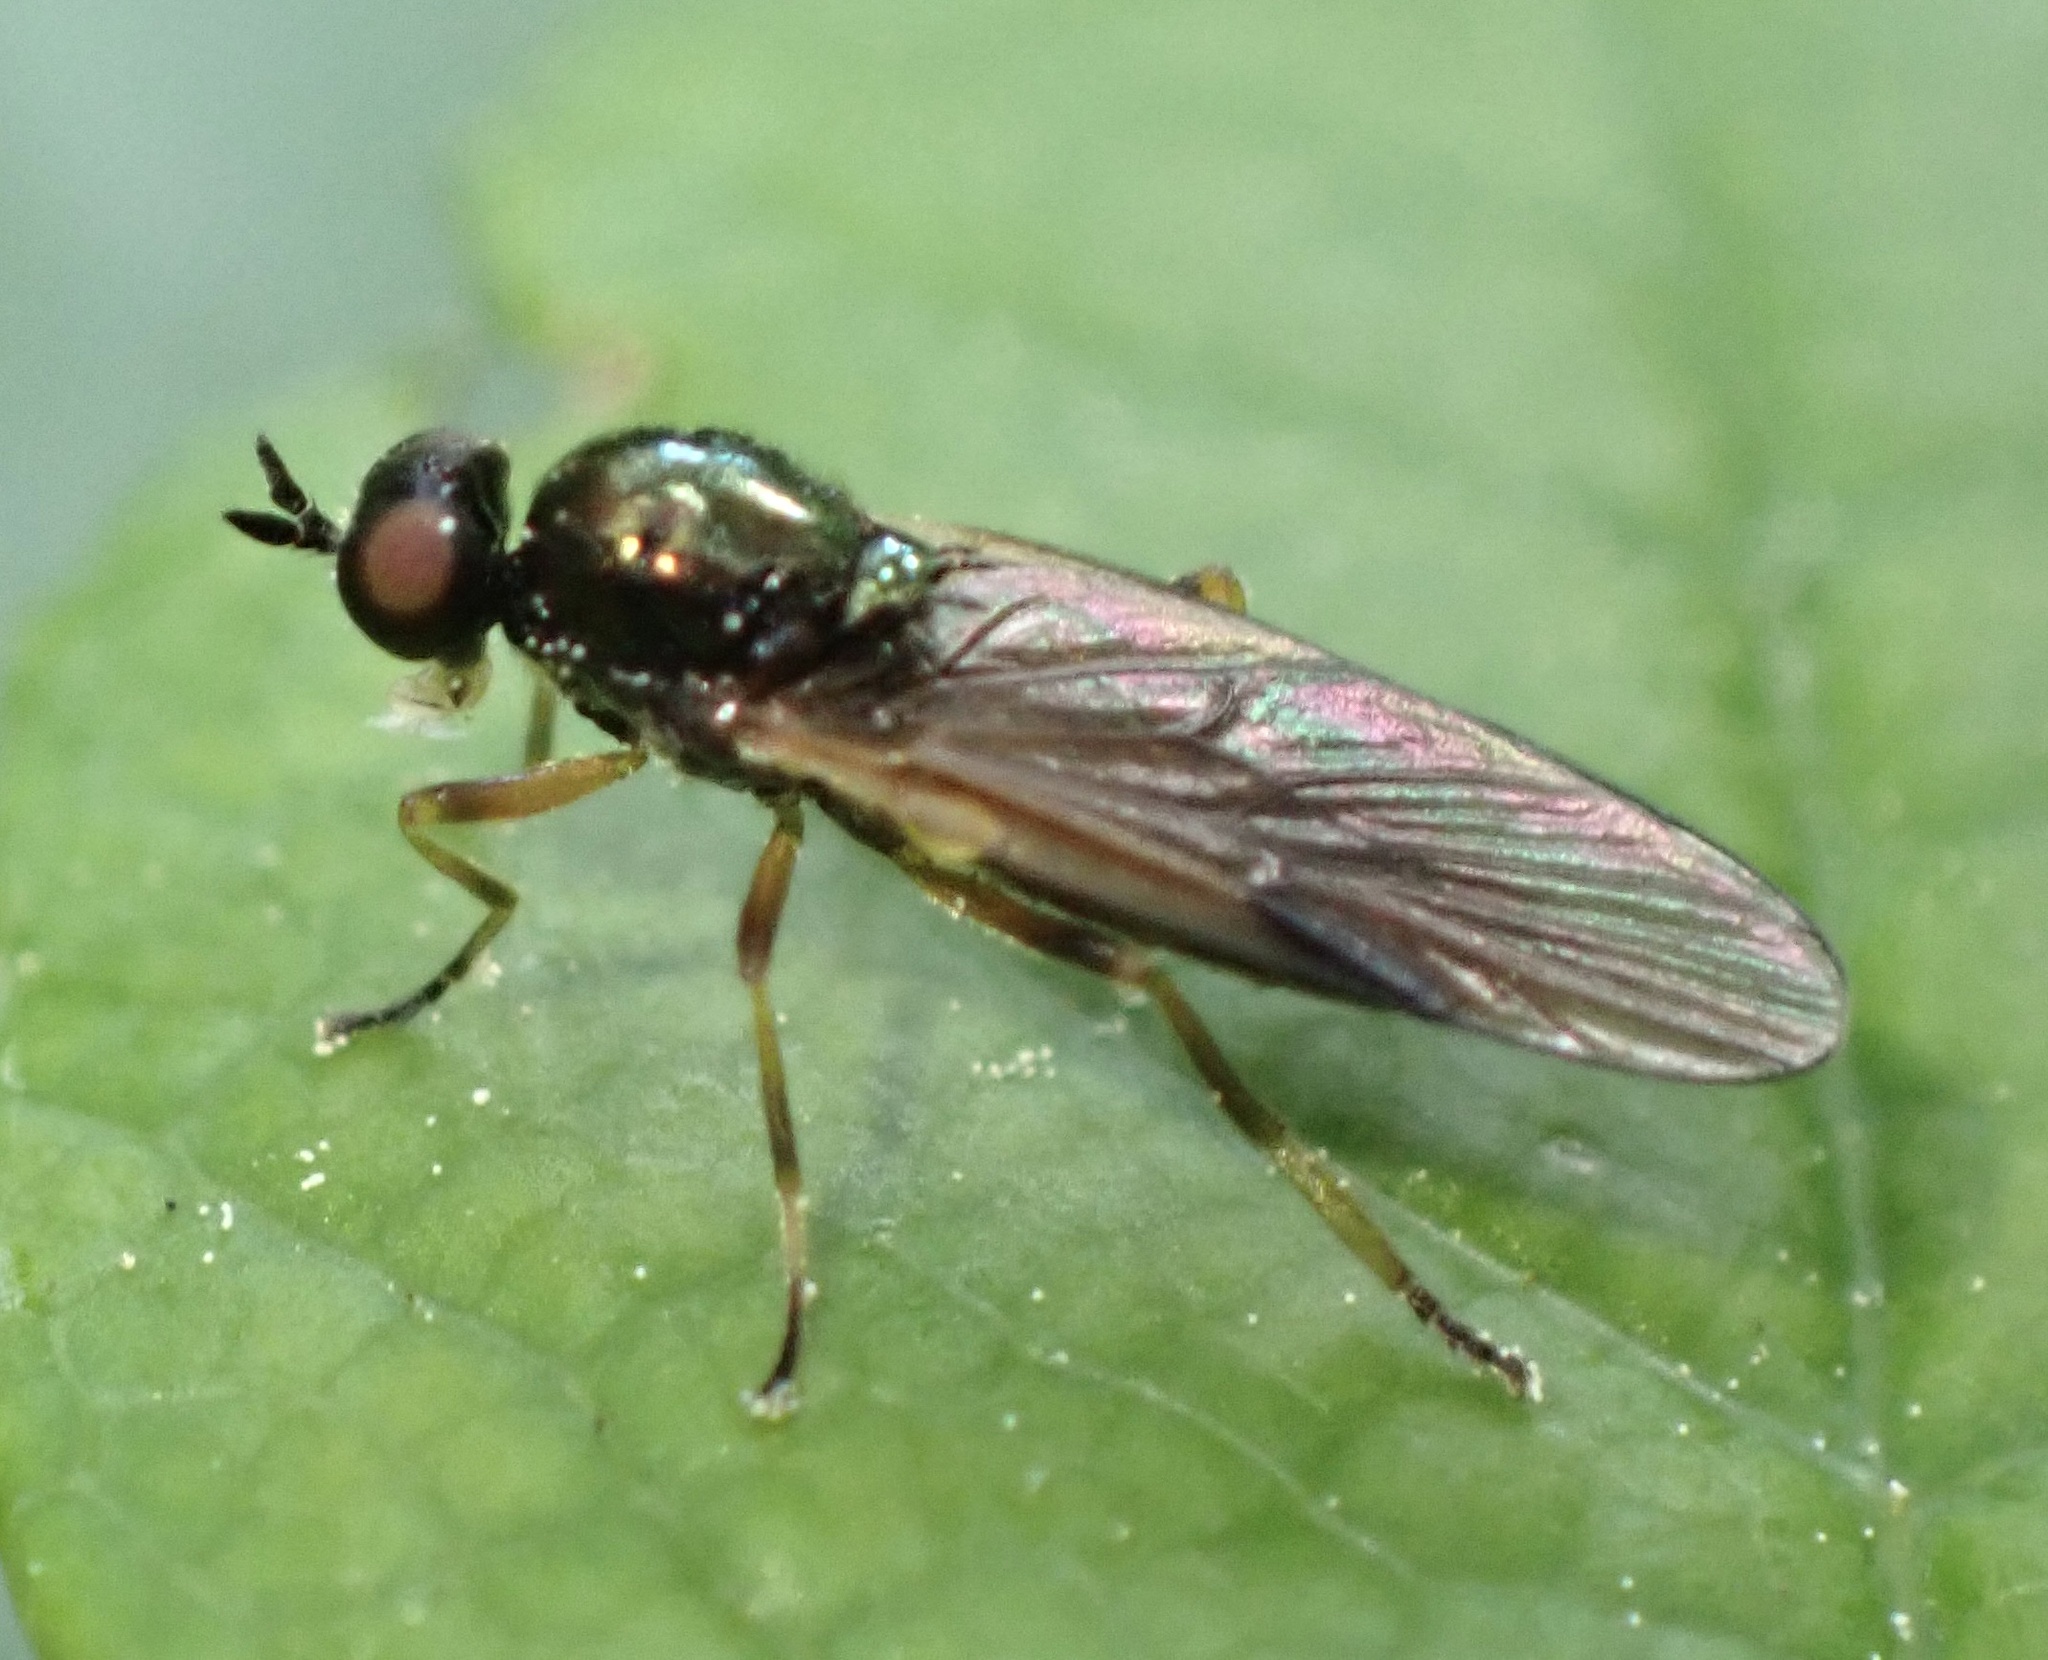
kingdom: Animalia
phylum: Arthropoda
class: Insecta
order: Diptera
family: Stratiomyidae
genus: Beris
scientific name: Beris chalybata
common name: Murky-legged black legionnaire
